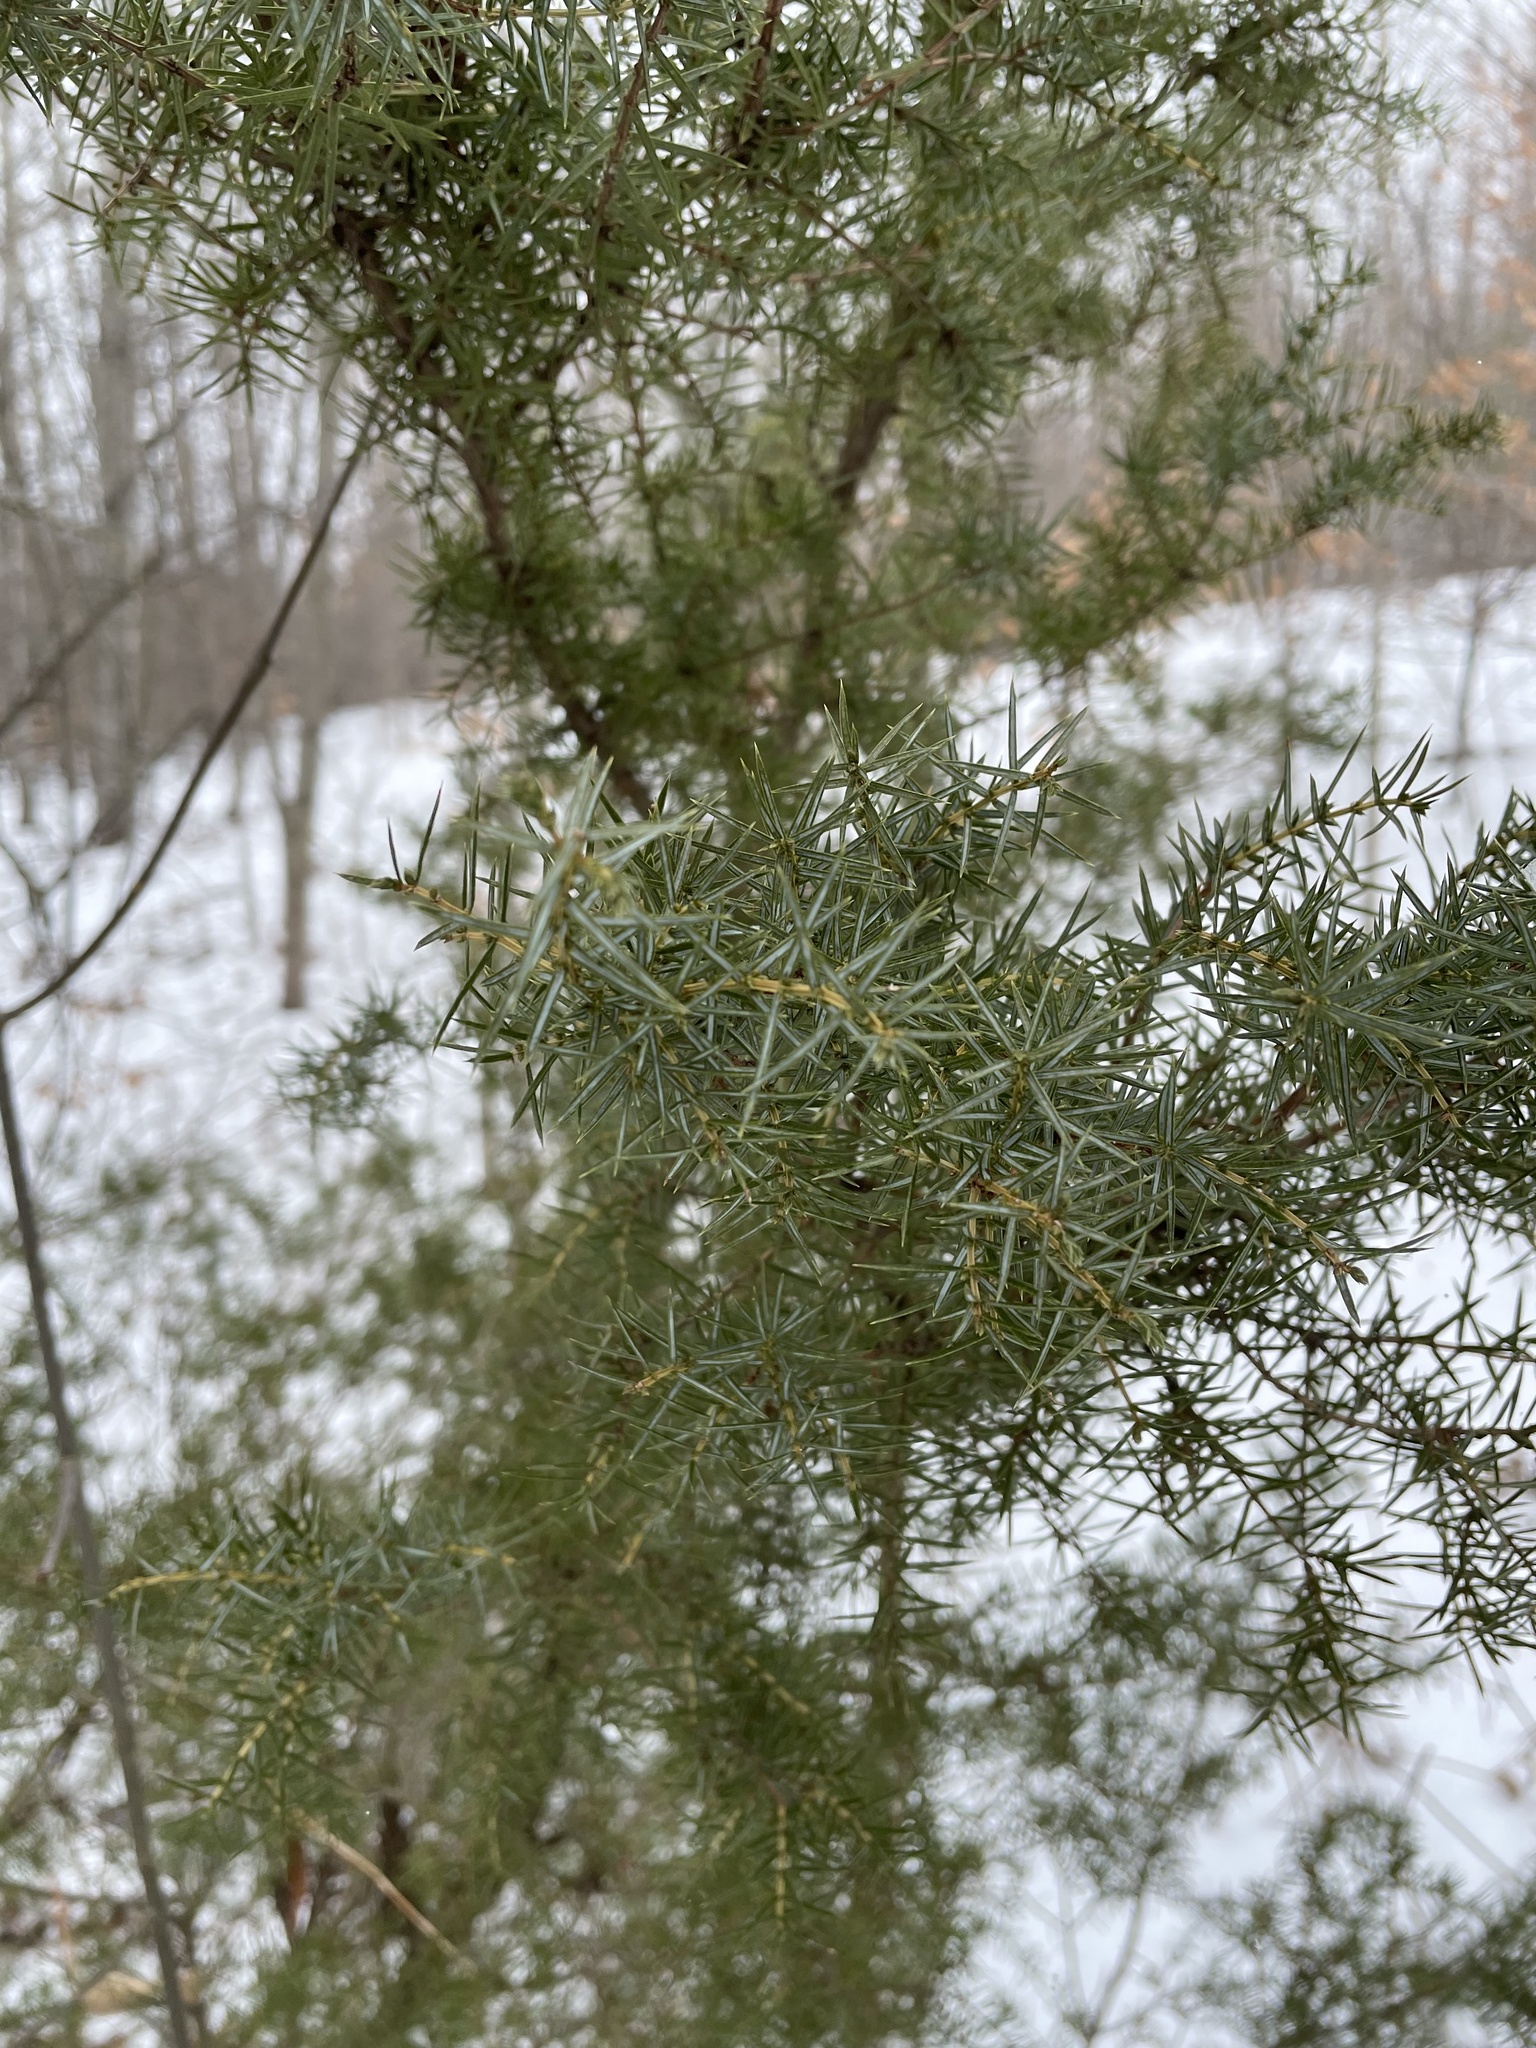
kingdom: Plantae
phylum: Tracheophyta
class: Pinopsida
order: Pinales
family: Cupressaceae
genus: Juniperus
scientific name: Juniperus communis
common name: Common juniper
